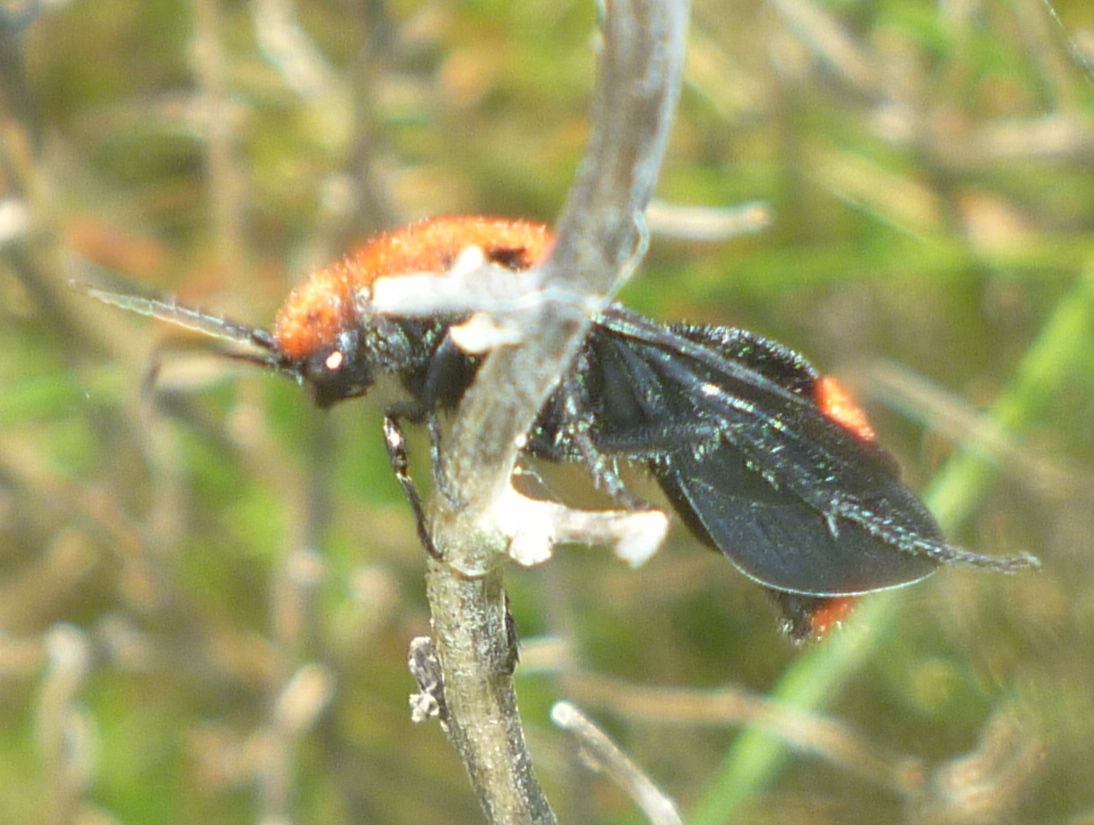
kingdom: Animalia
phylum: Arthropoda
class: Insecta
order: Hymenoptera
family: Mutillidae
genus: Dasymutilla
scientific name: Dasymutilla occidentalis
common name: Common eastern velvet ant
